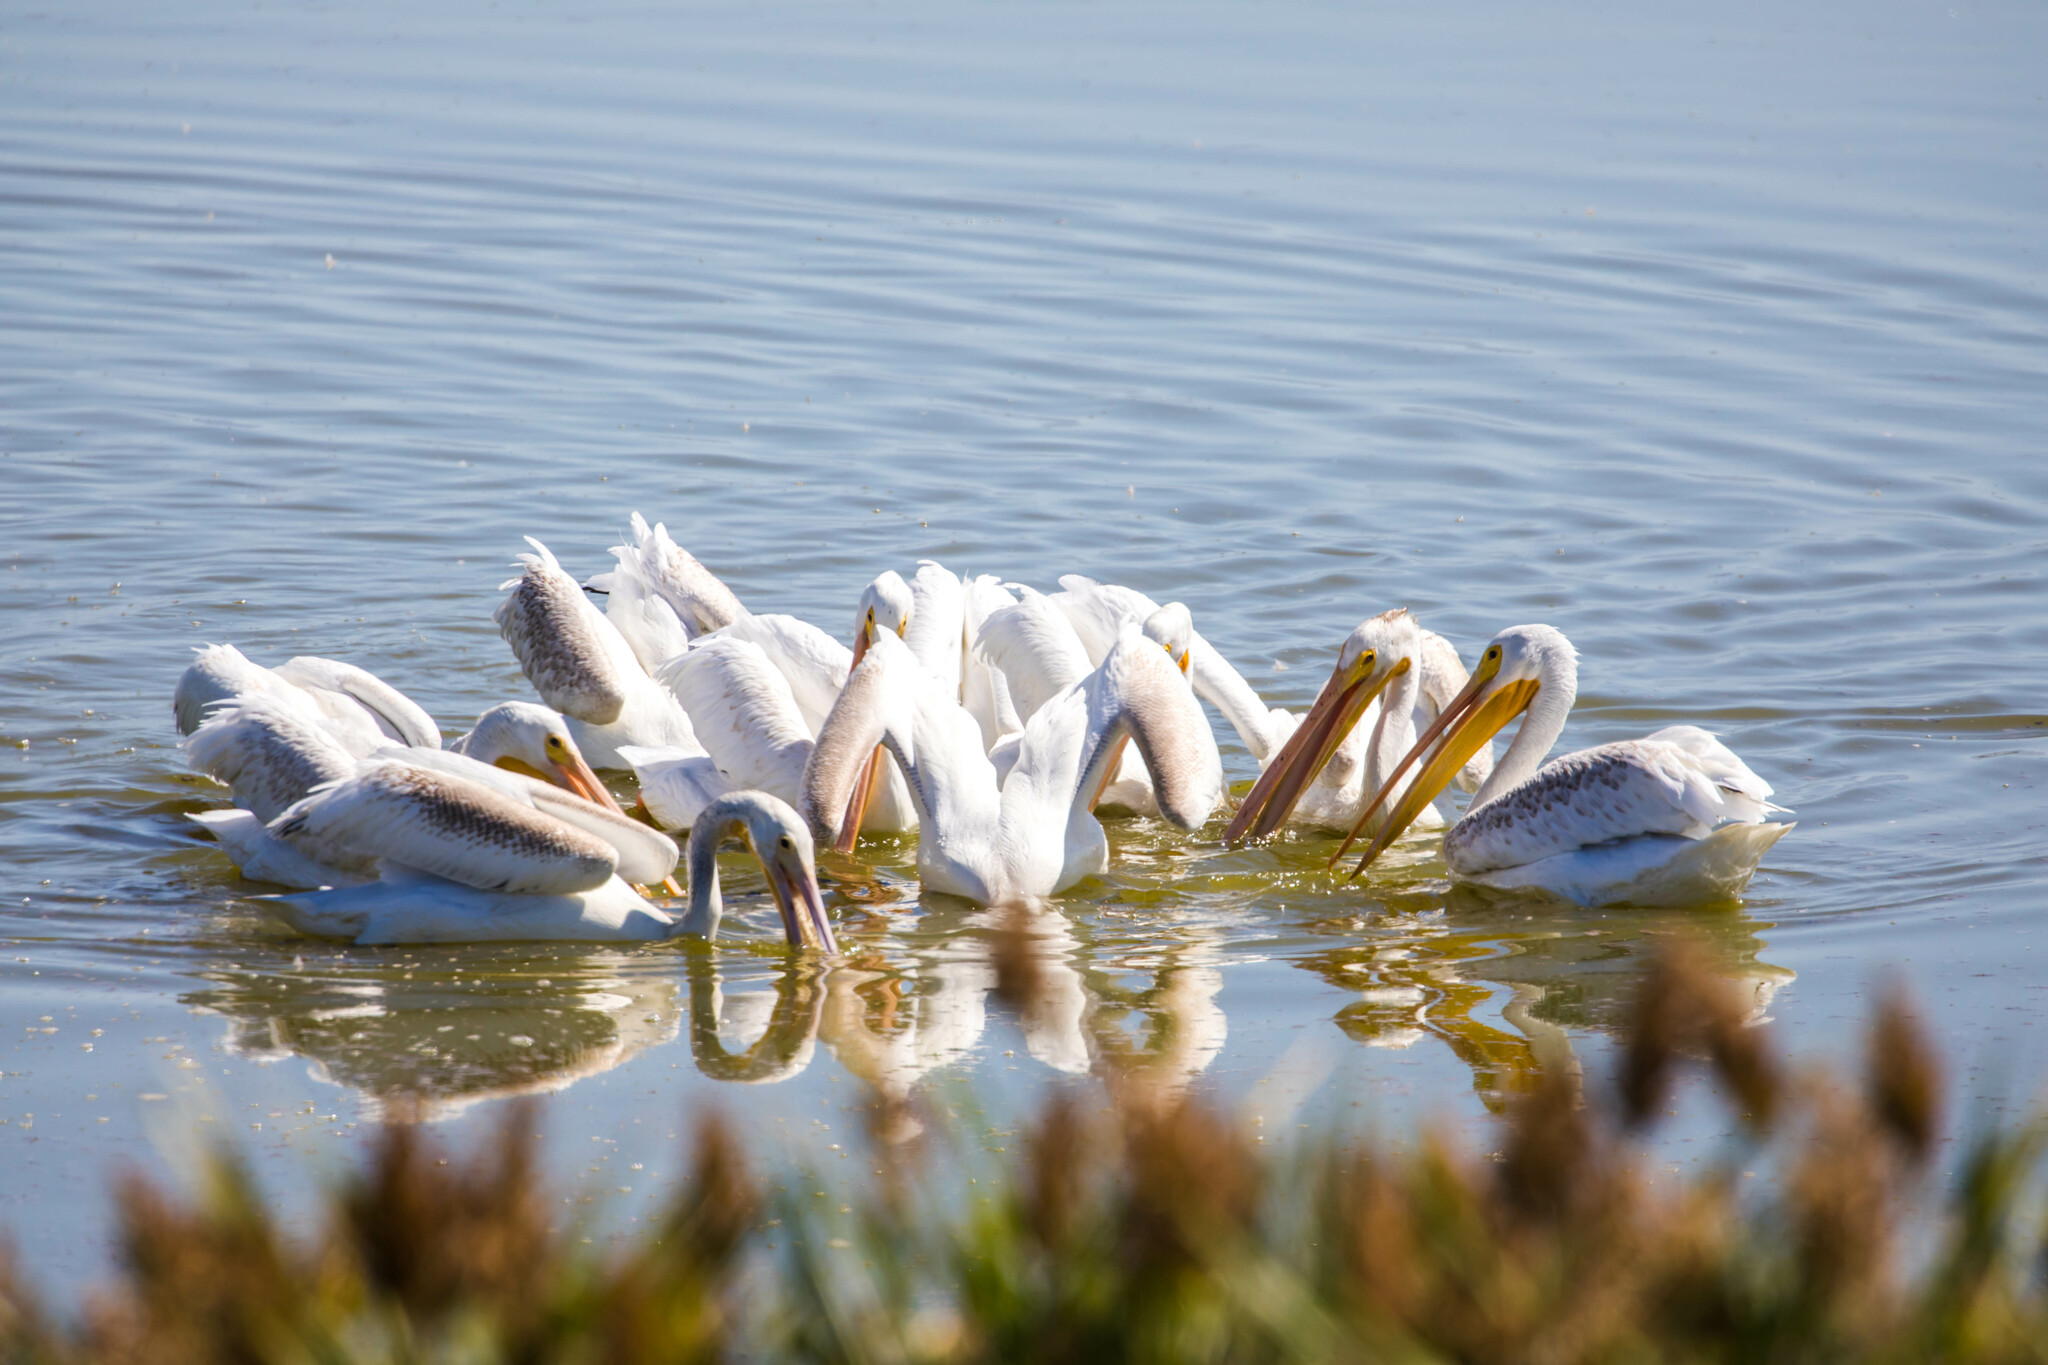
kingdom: Animalia
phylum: Chordata
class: Aves
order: Pelecaniformes
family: Pelecanidae
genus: Pelecanus
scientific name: Pelecanus erythrorhynchos
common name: American white pelican
